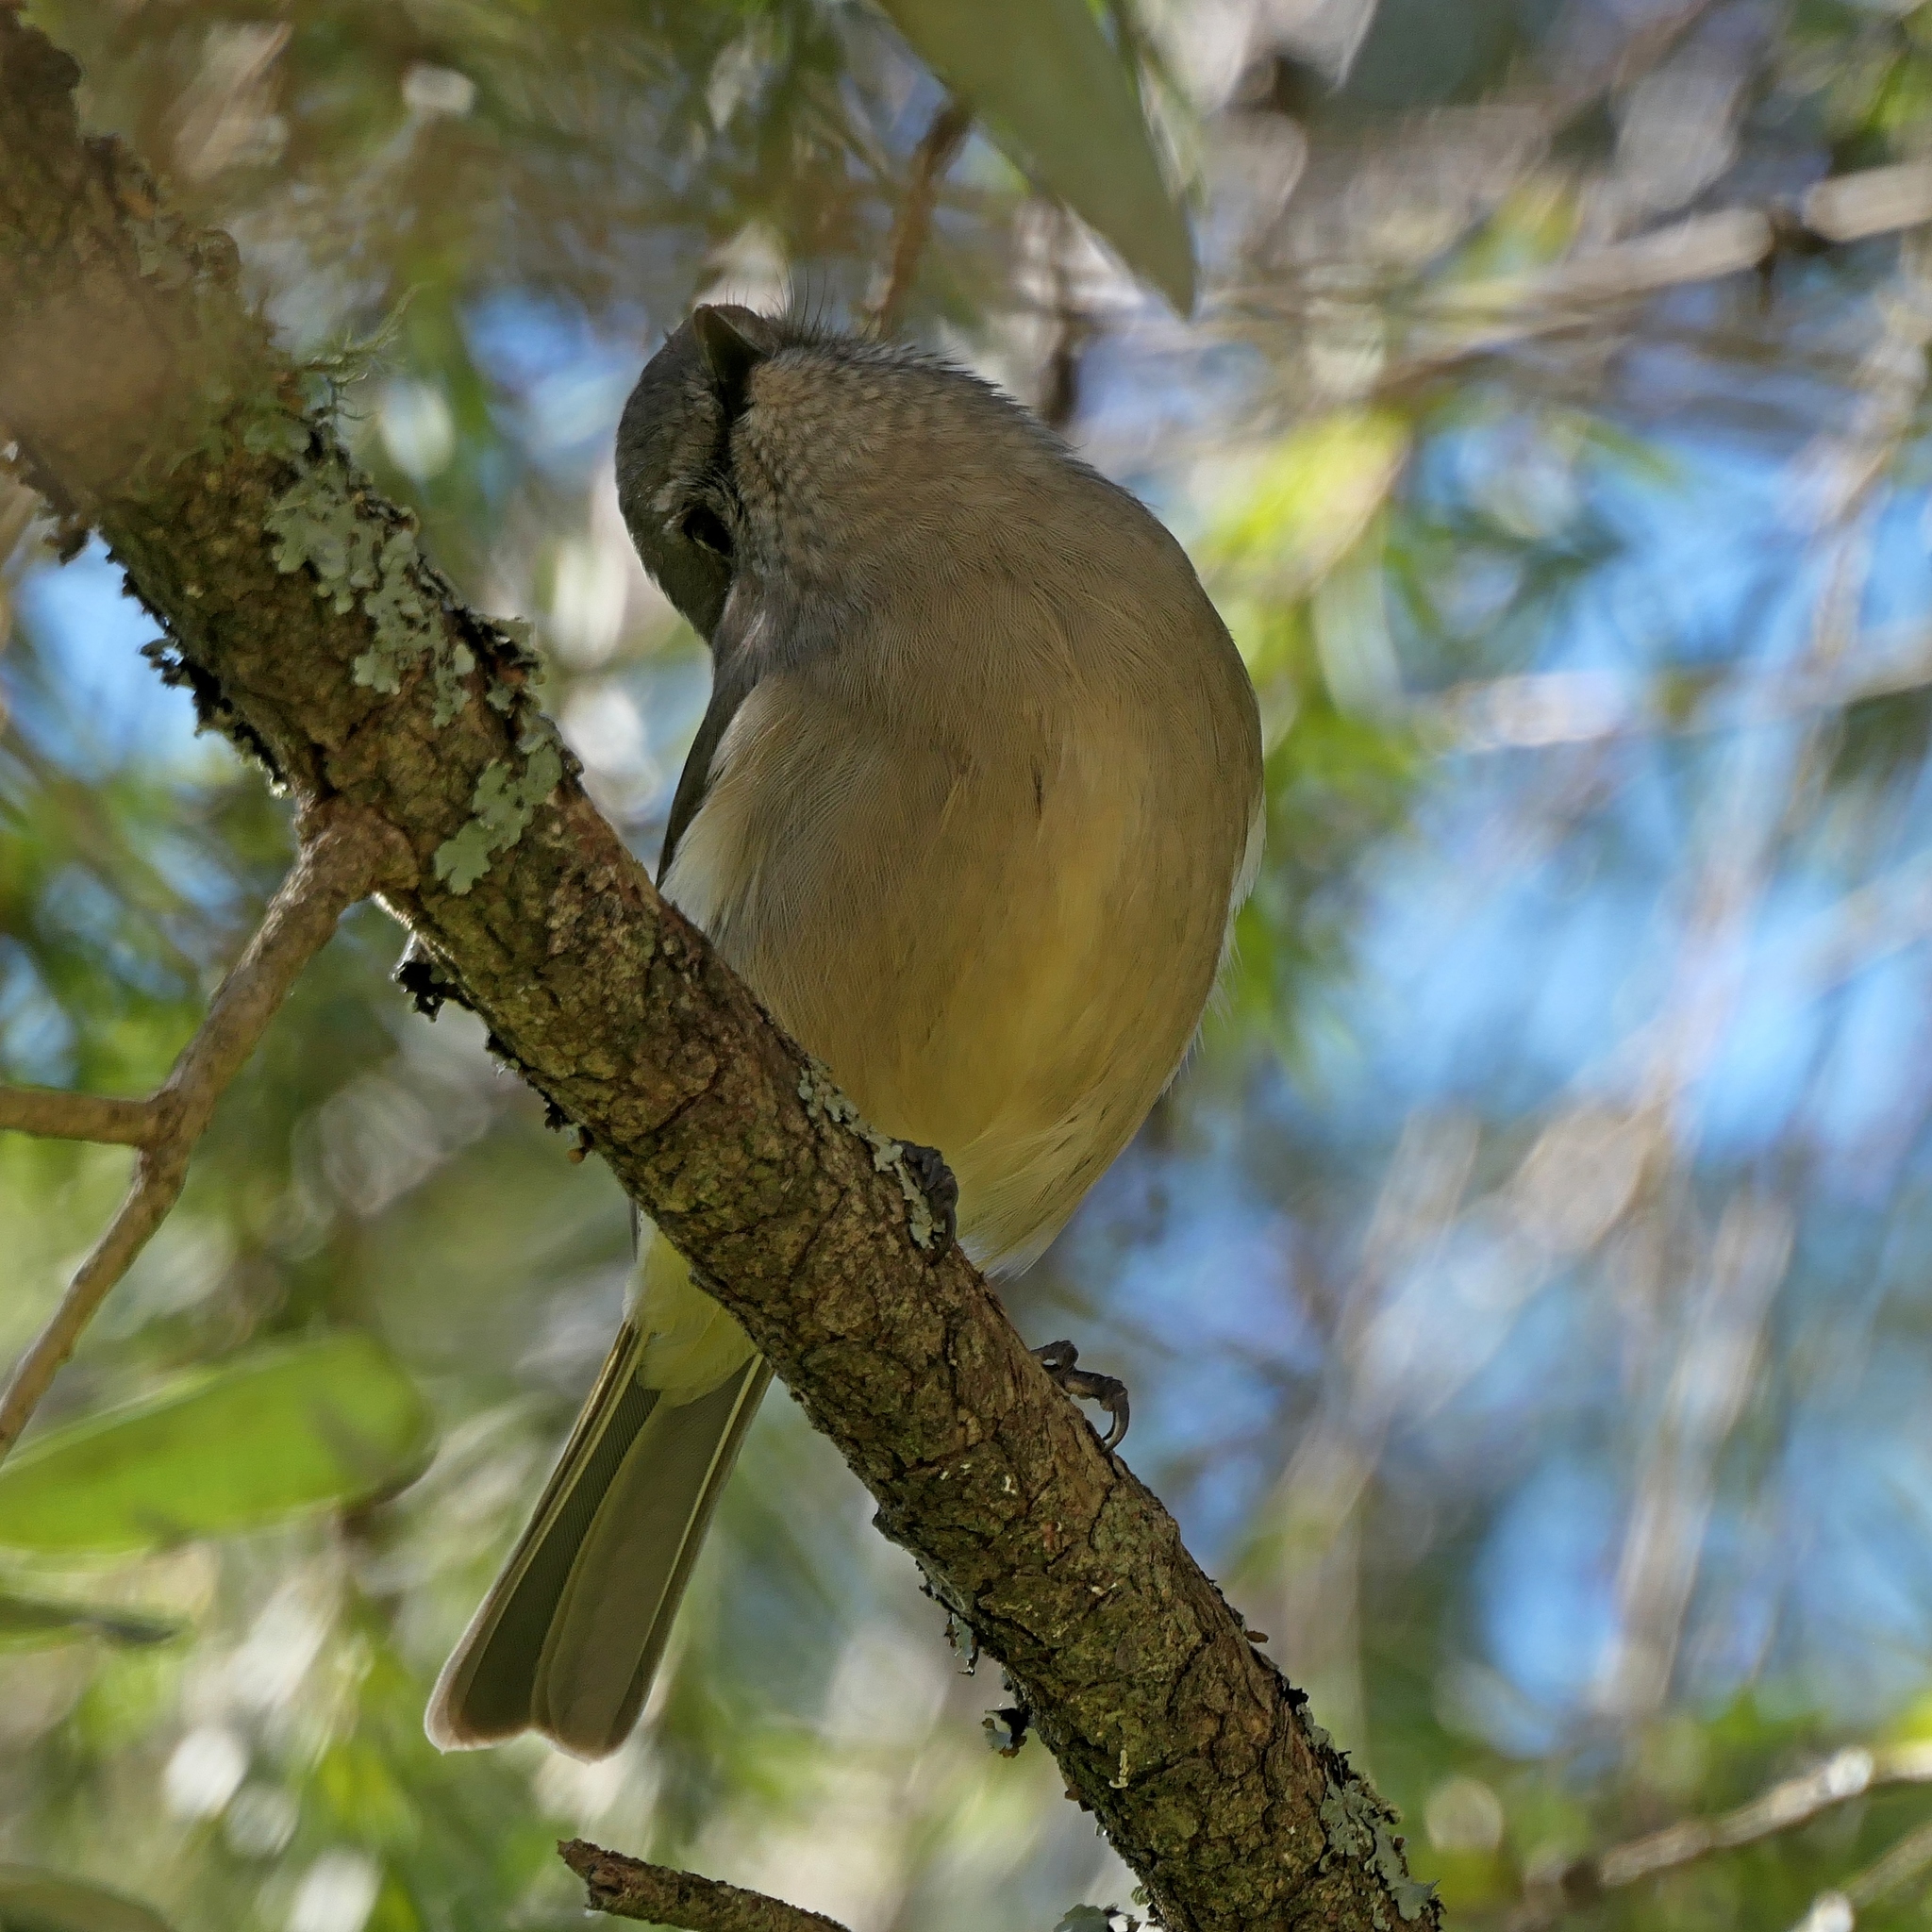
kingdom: Animalia
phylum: Chordata
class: Aves
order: Passeriformes
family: Pachycephalidae
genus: Pachycephala
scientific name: Pachycephala pectoralis
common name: Australian golden whistler
